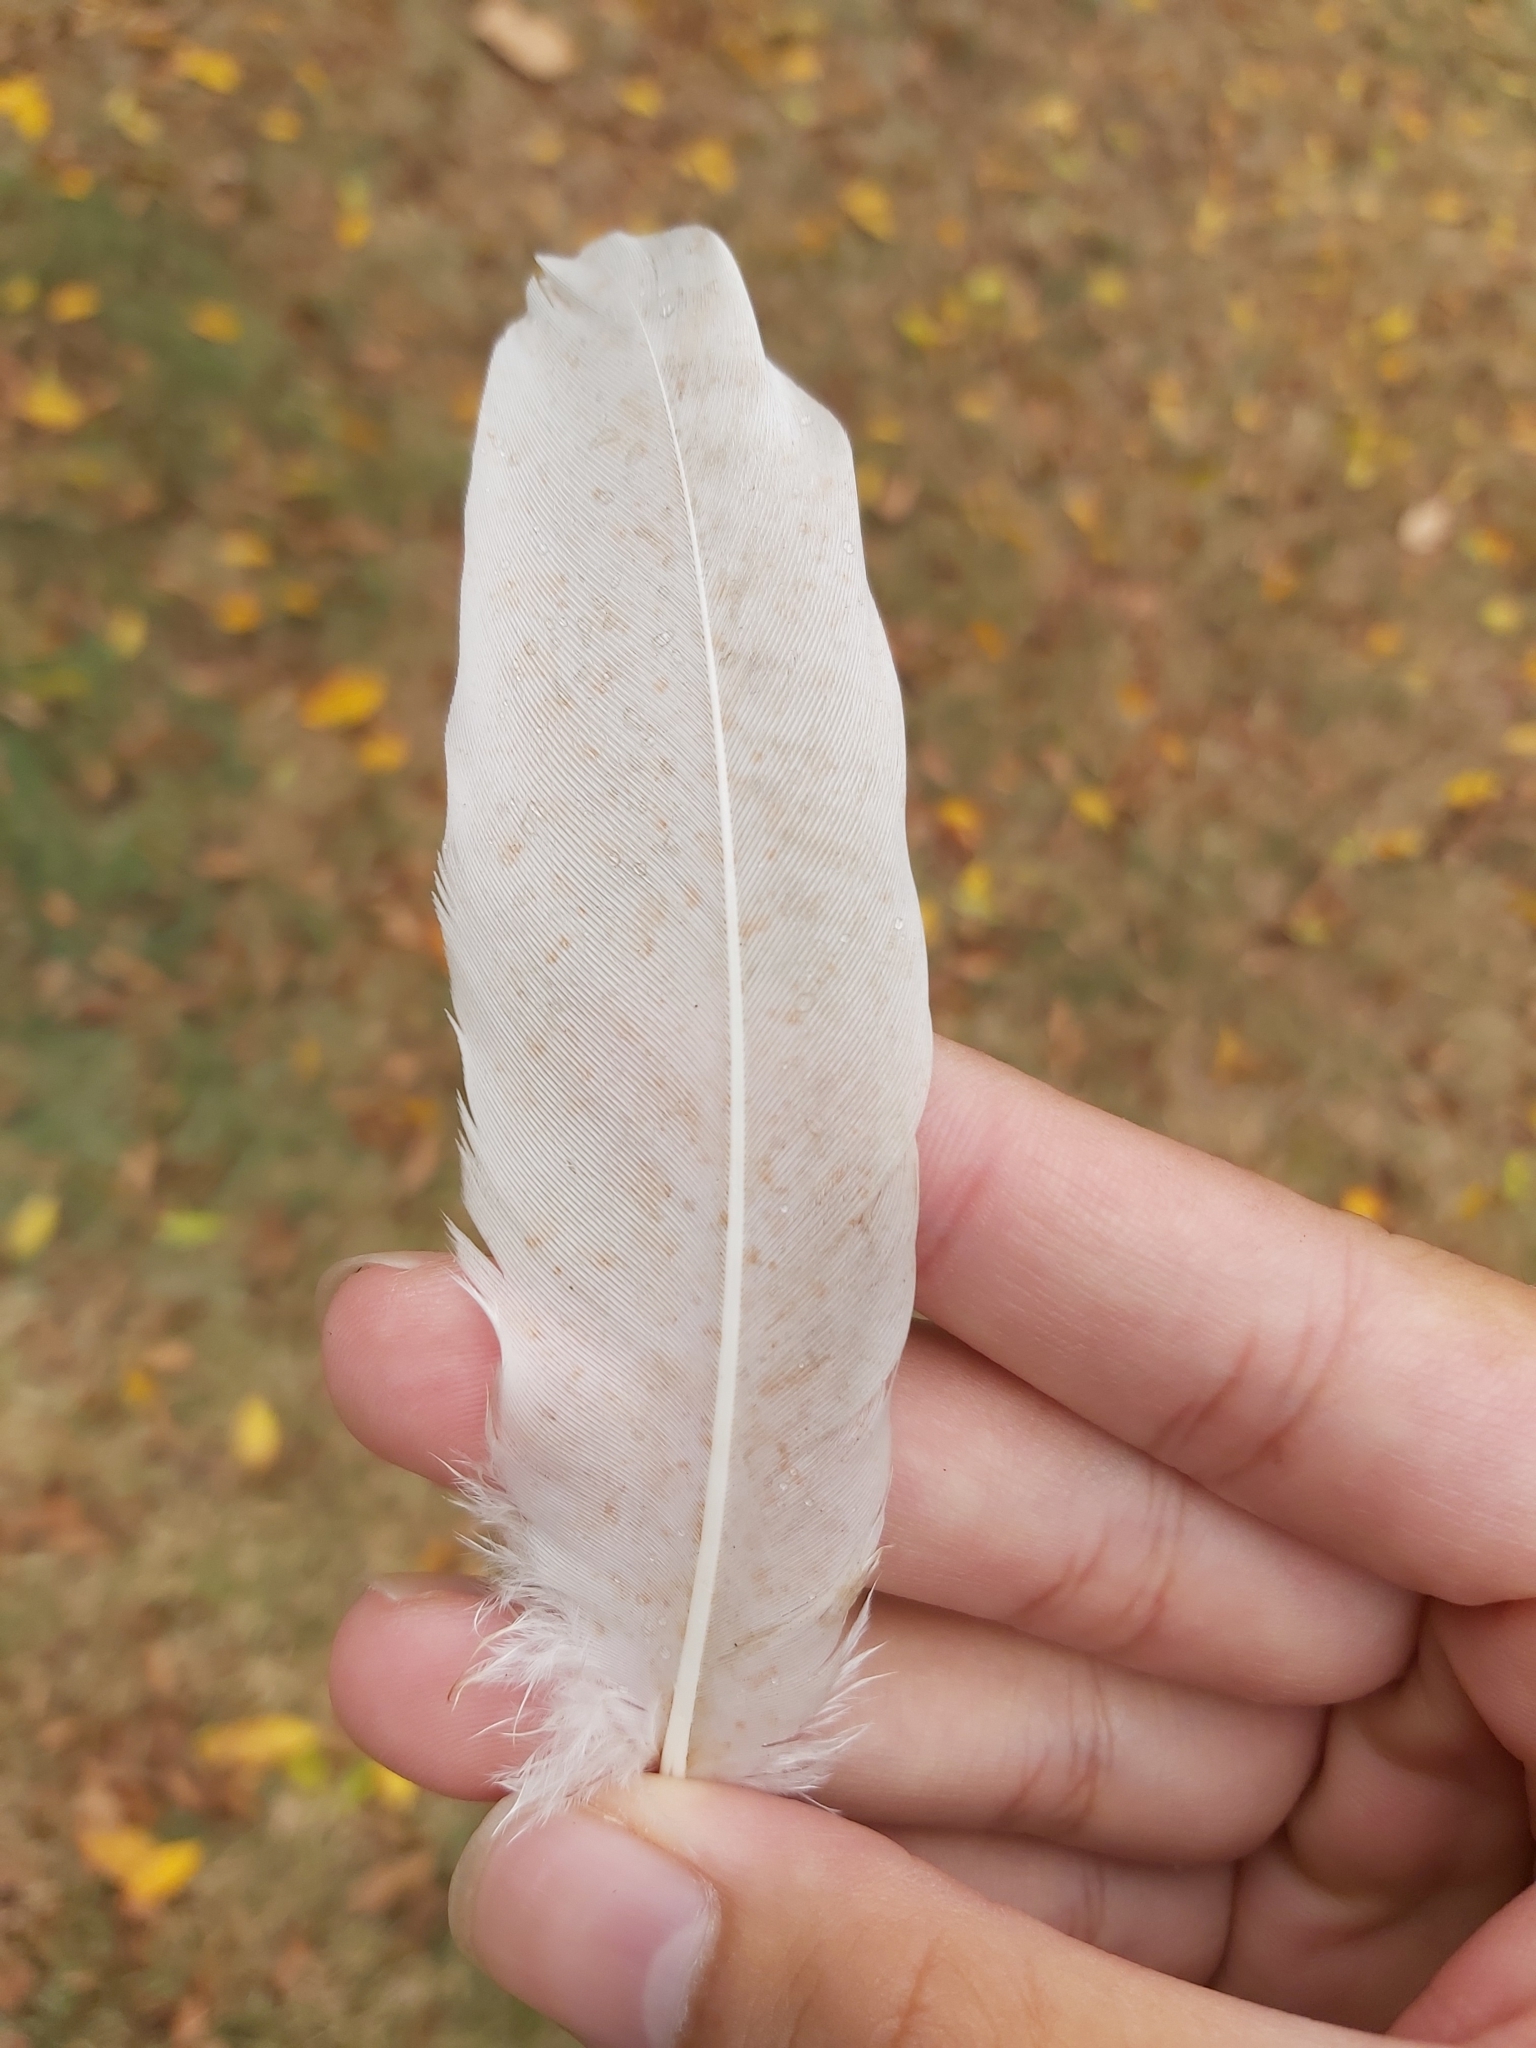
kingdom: Animalia
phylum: Chordata
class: Aves
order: Pelecaniformes
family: Threskiornithidae
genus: Threskiornis
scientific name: Threskiornis molucca
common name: Australian white ibis
